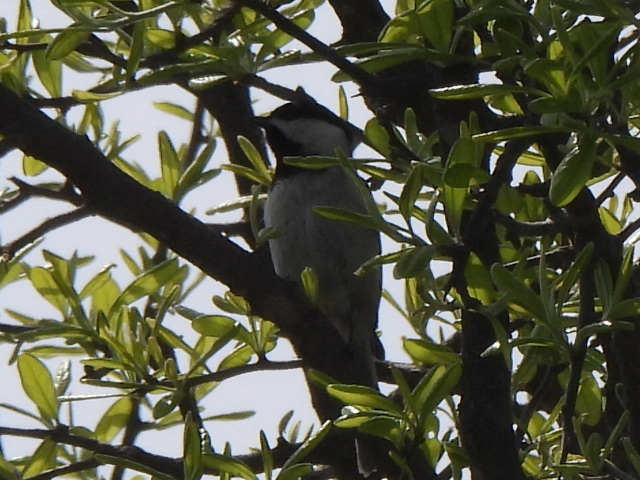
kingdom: Animalia
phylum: Chordata
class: Aves
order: Passeriformes
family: Paridae
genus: Poecile
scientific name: Poecile carolinensis
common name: Carolina chickadee
